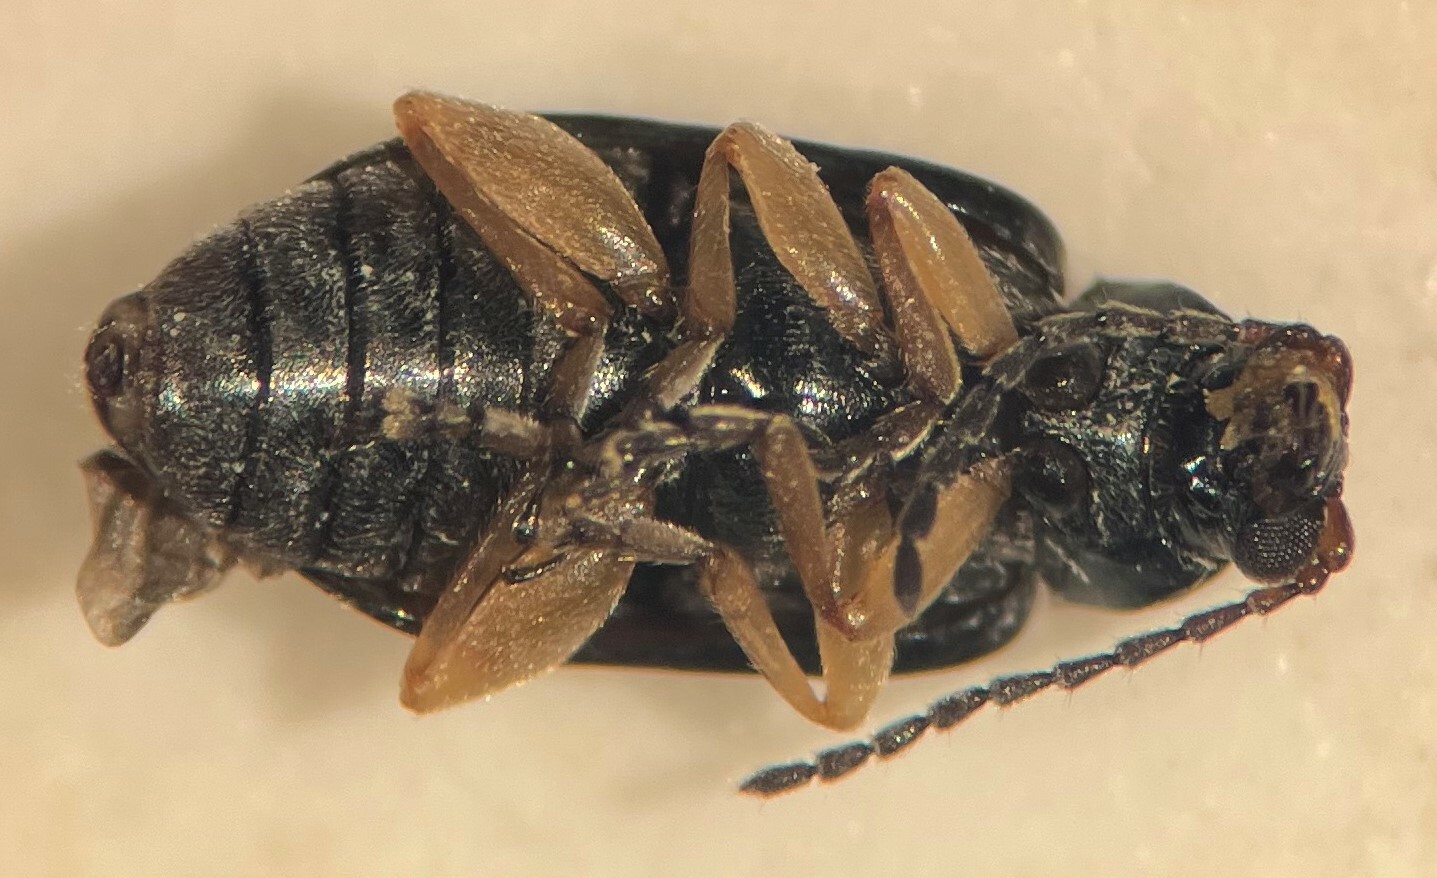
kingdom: Animalia
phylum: Arthropoda
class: Insecta
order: Coleoptera
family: Chrysomelidae
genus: Lysathia
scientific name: Lysathia ludoviciana
